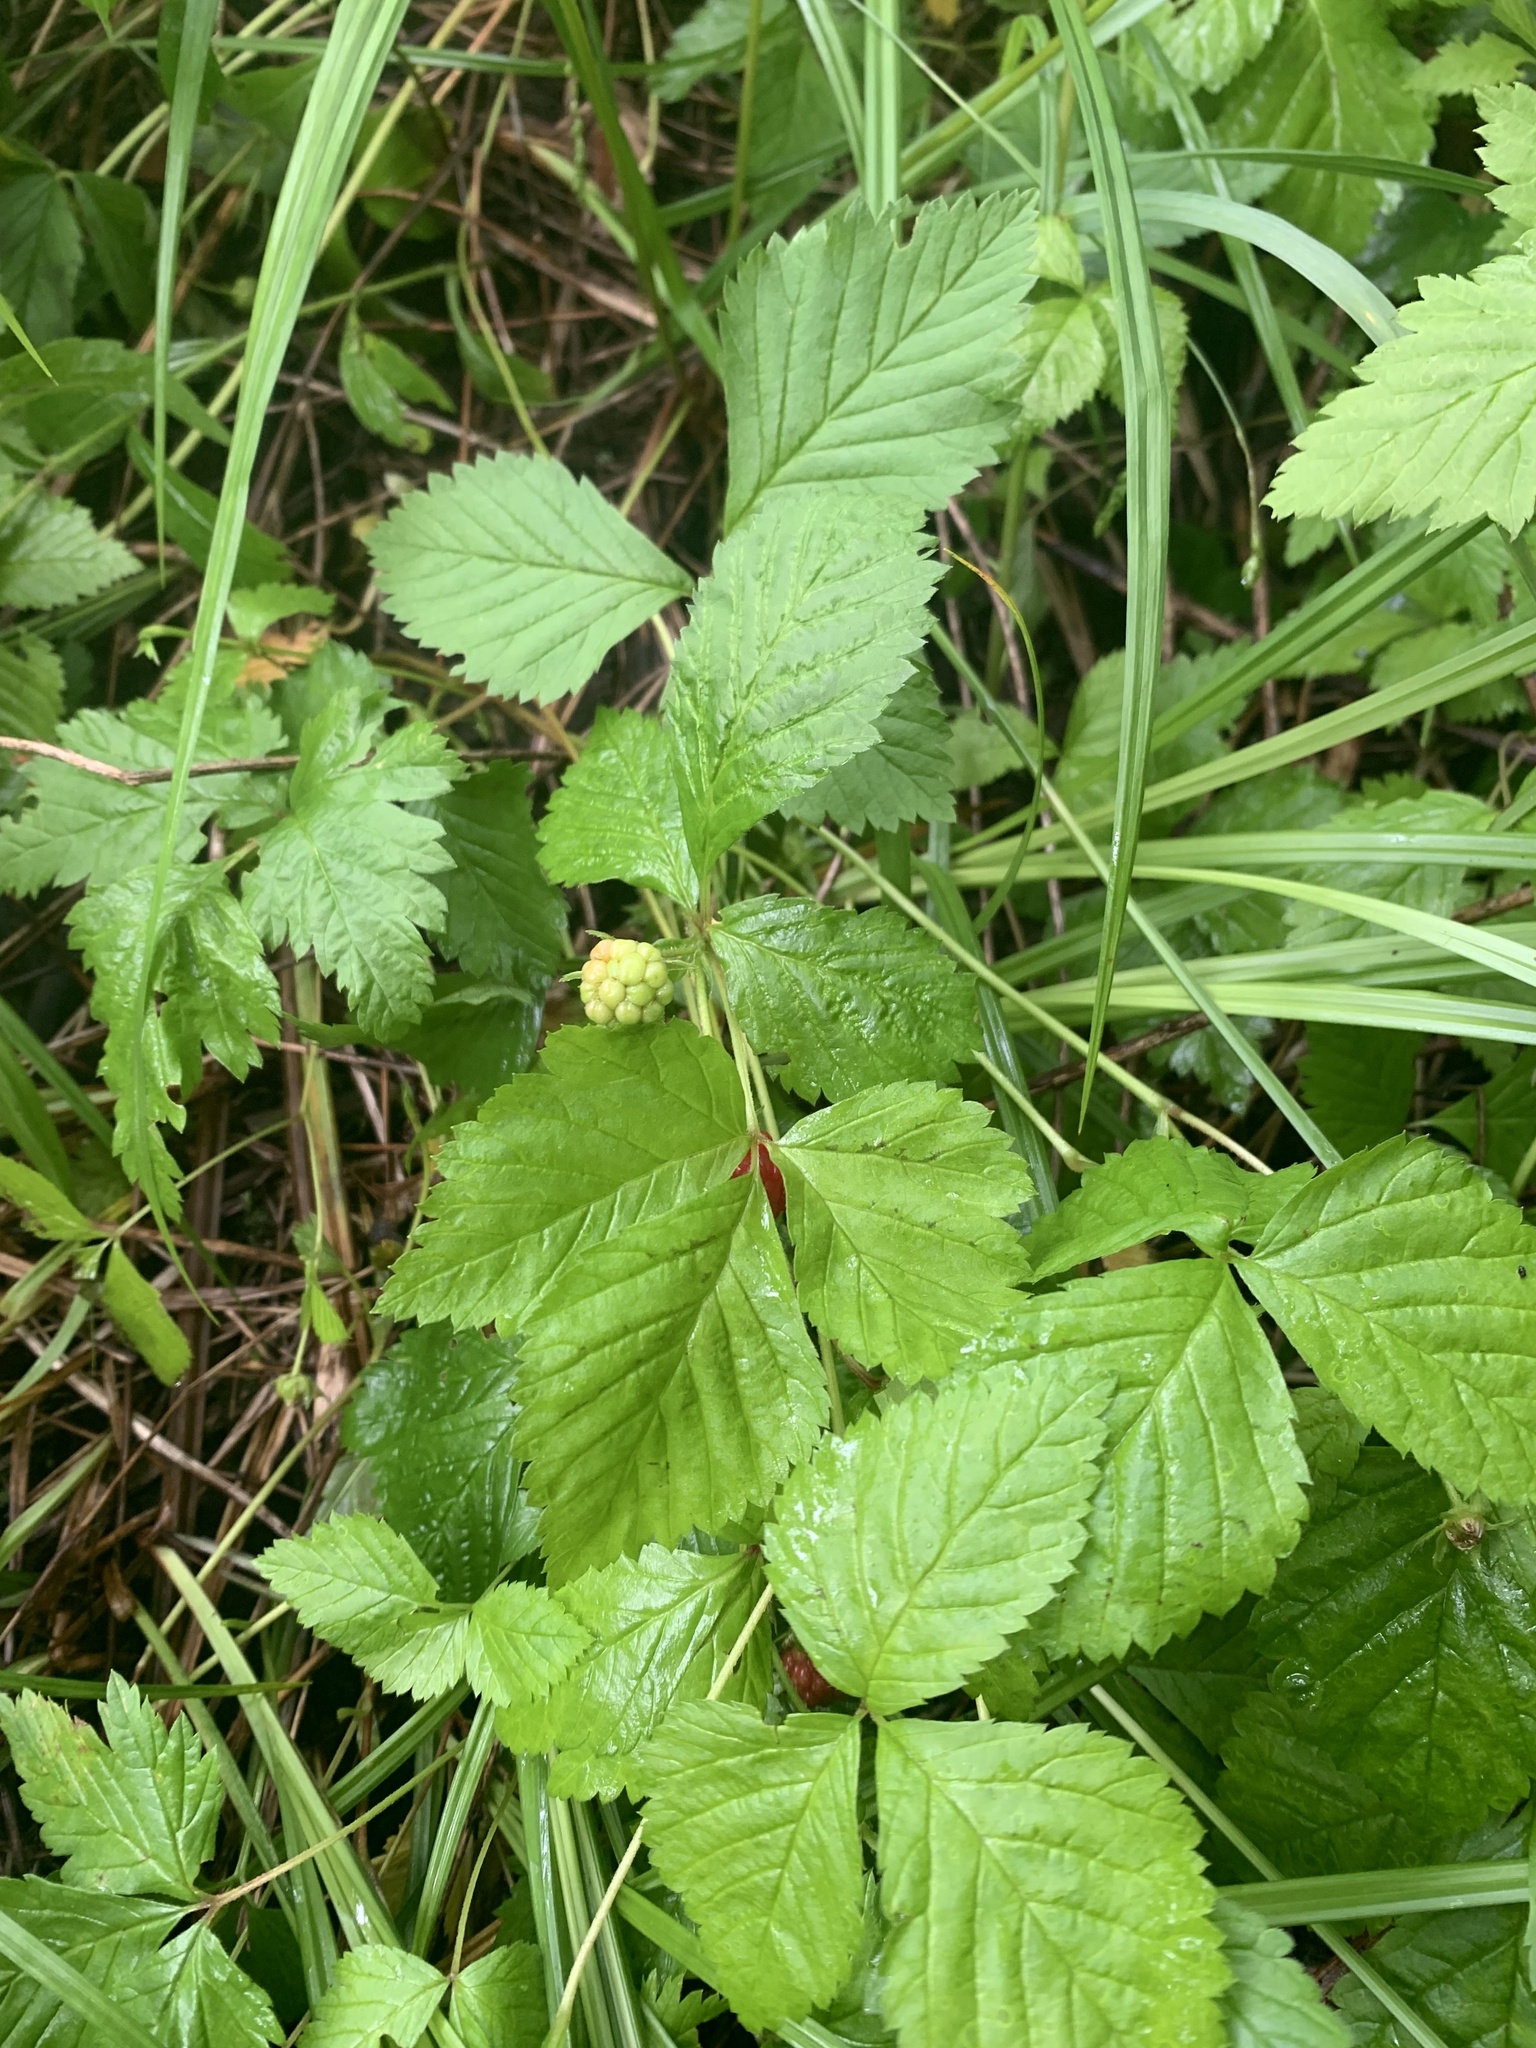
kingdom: Plantae
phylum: Tracheophyta
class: Magnoliopsida
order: Rosales
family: Rosaceae
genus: Rubus
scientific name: Rubus pubescens
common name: Dwarf raspberry
